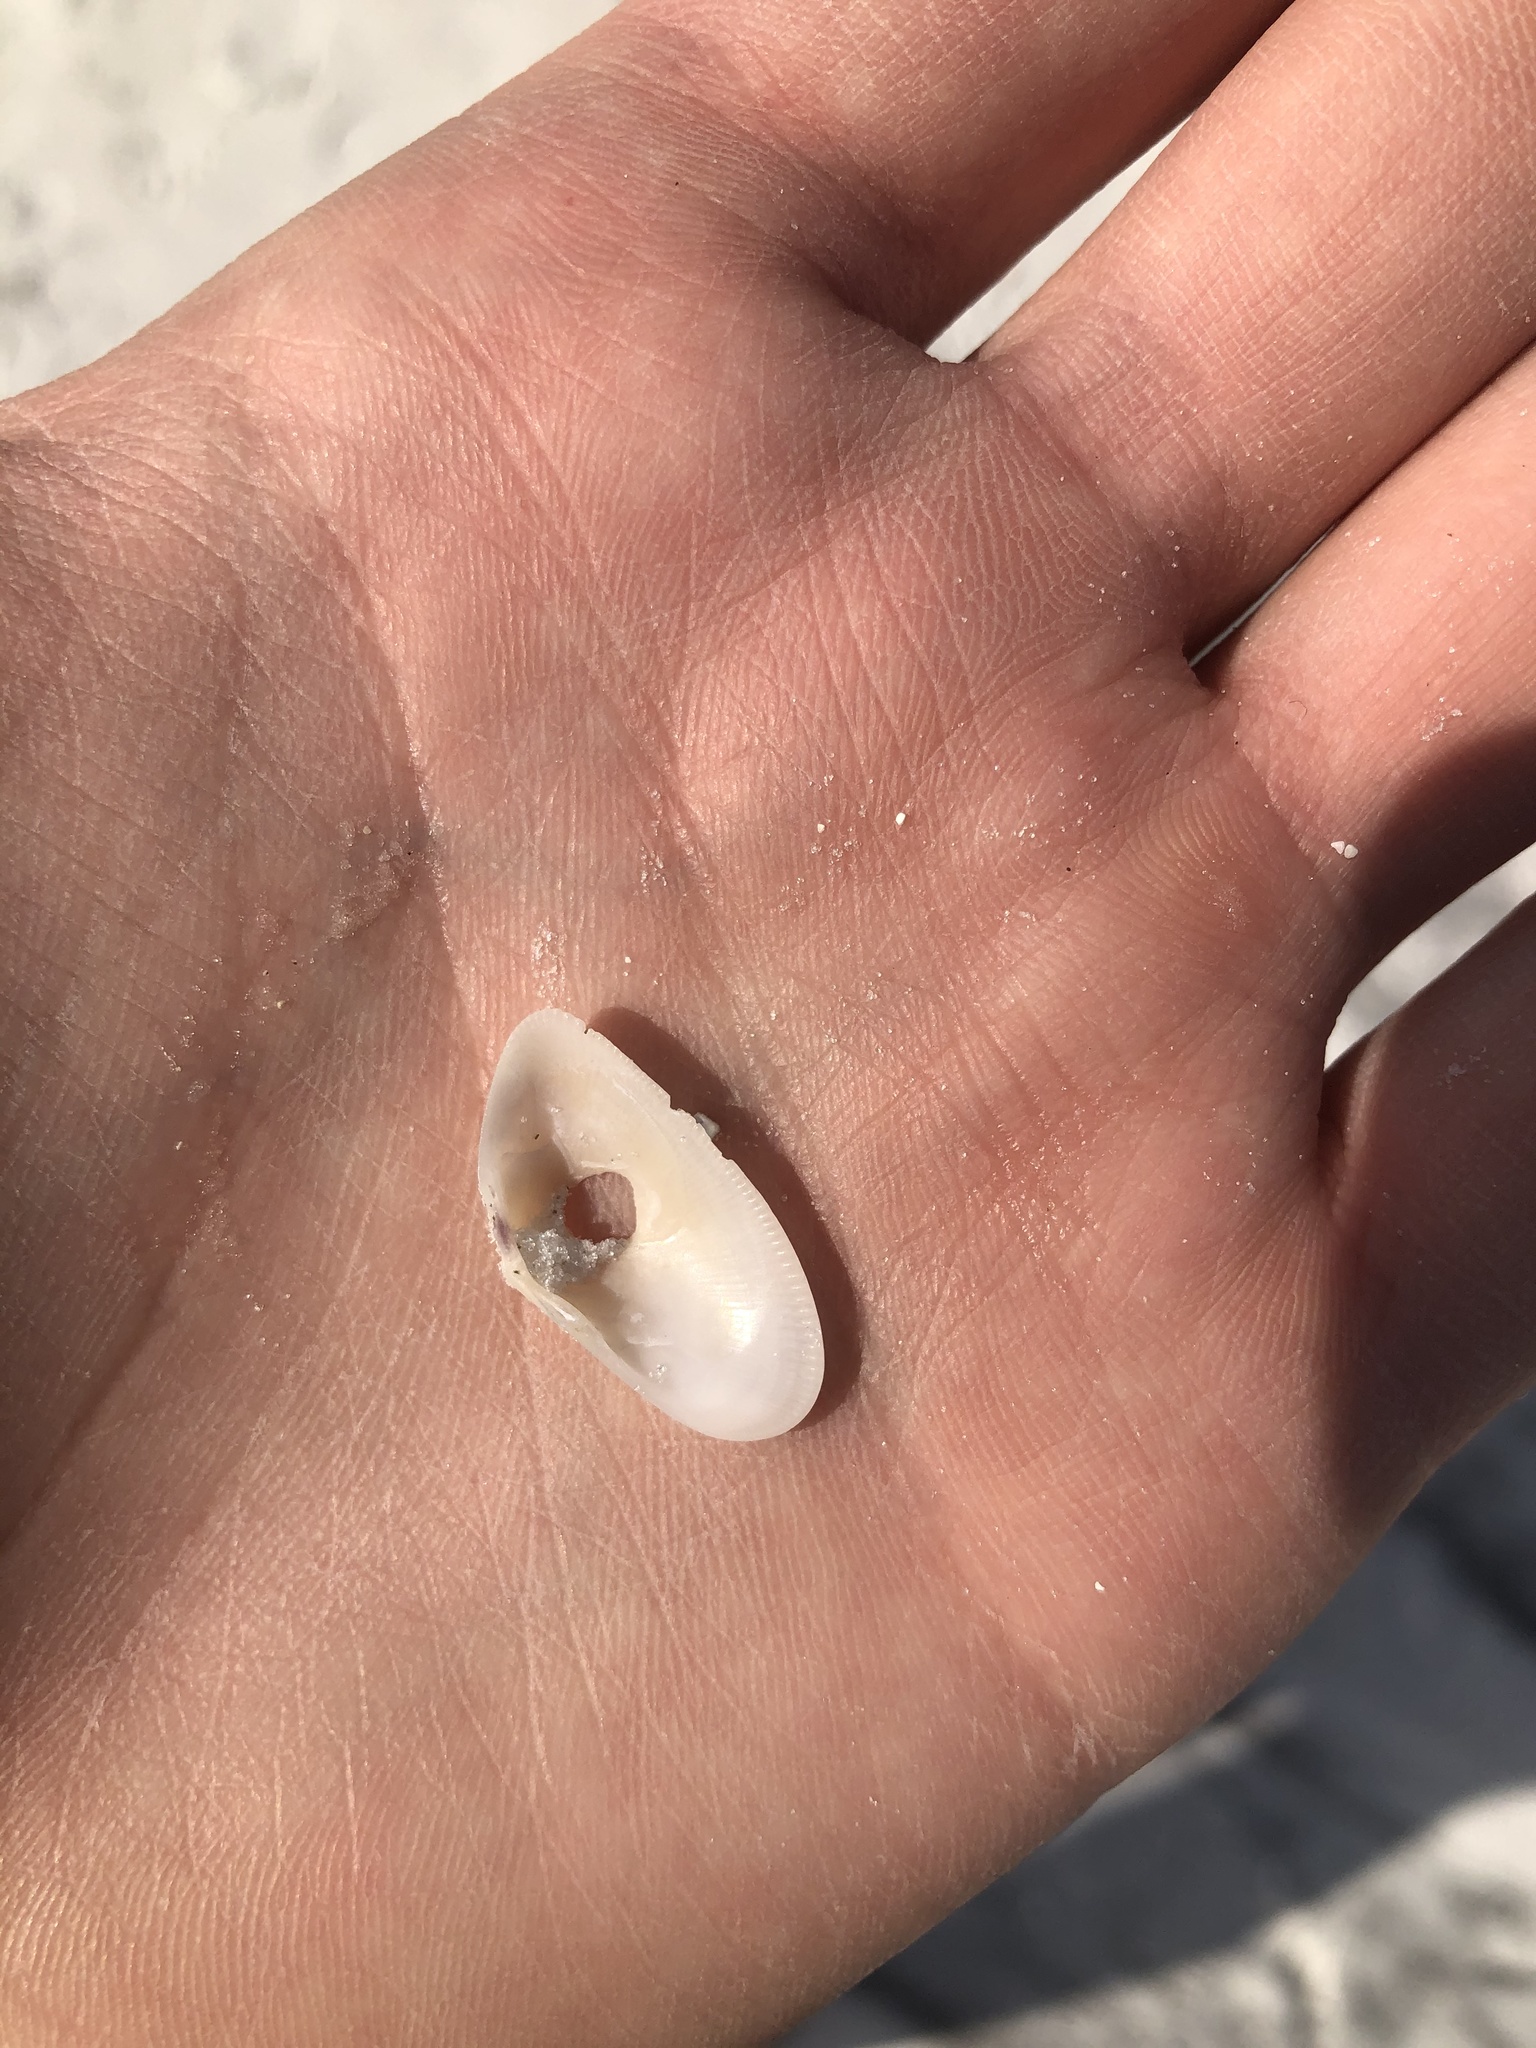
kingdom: Animalia
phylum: Mollusca
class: Bivalvia
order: Cardiida
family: Donacidae
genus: Donax
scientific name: Donax variabilis
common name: Butterfly shell
